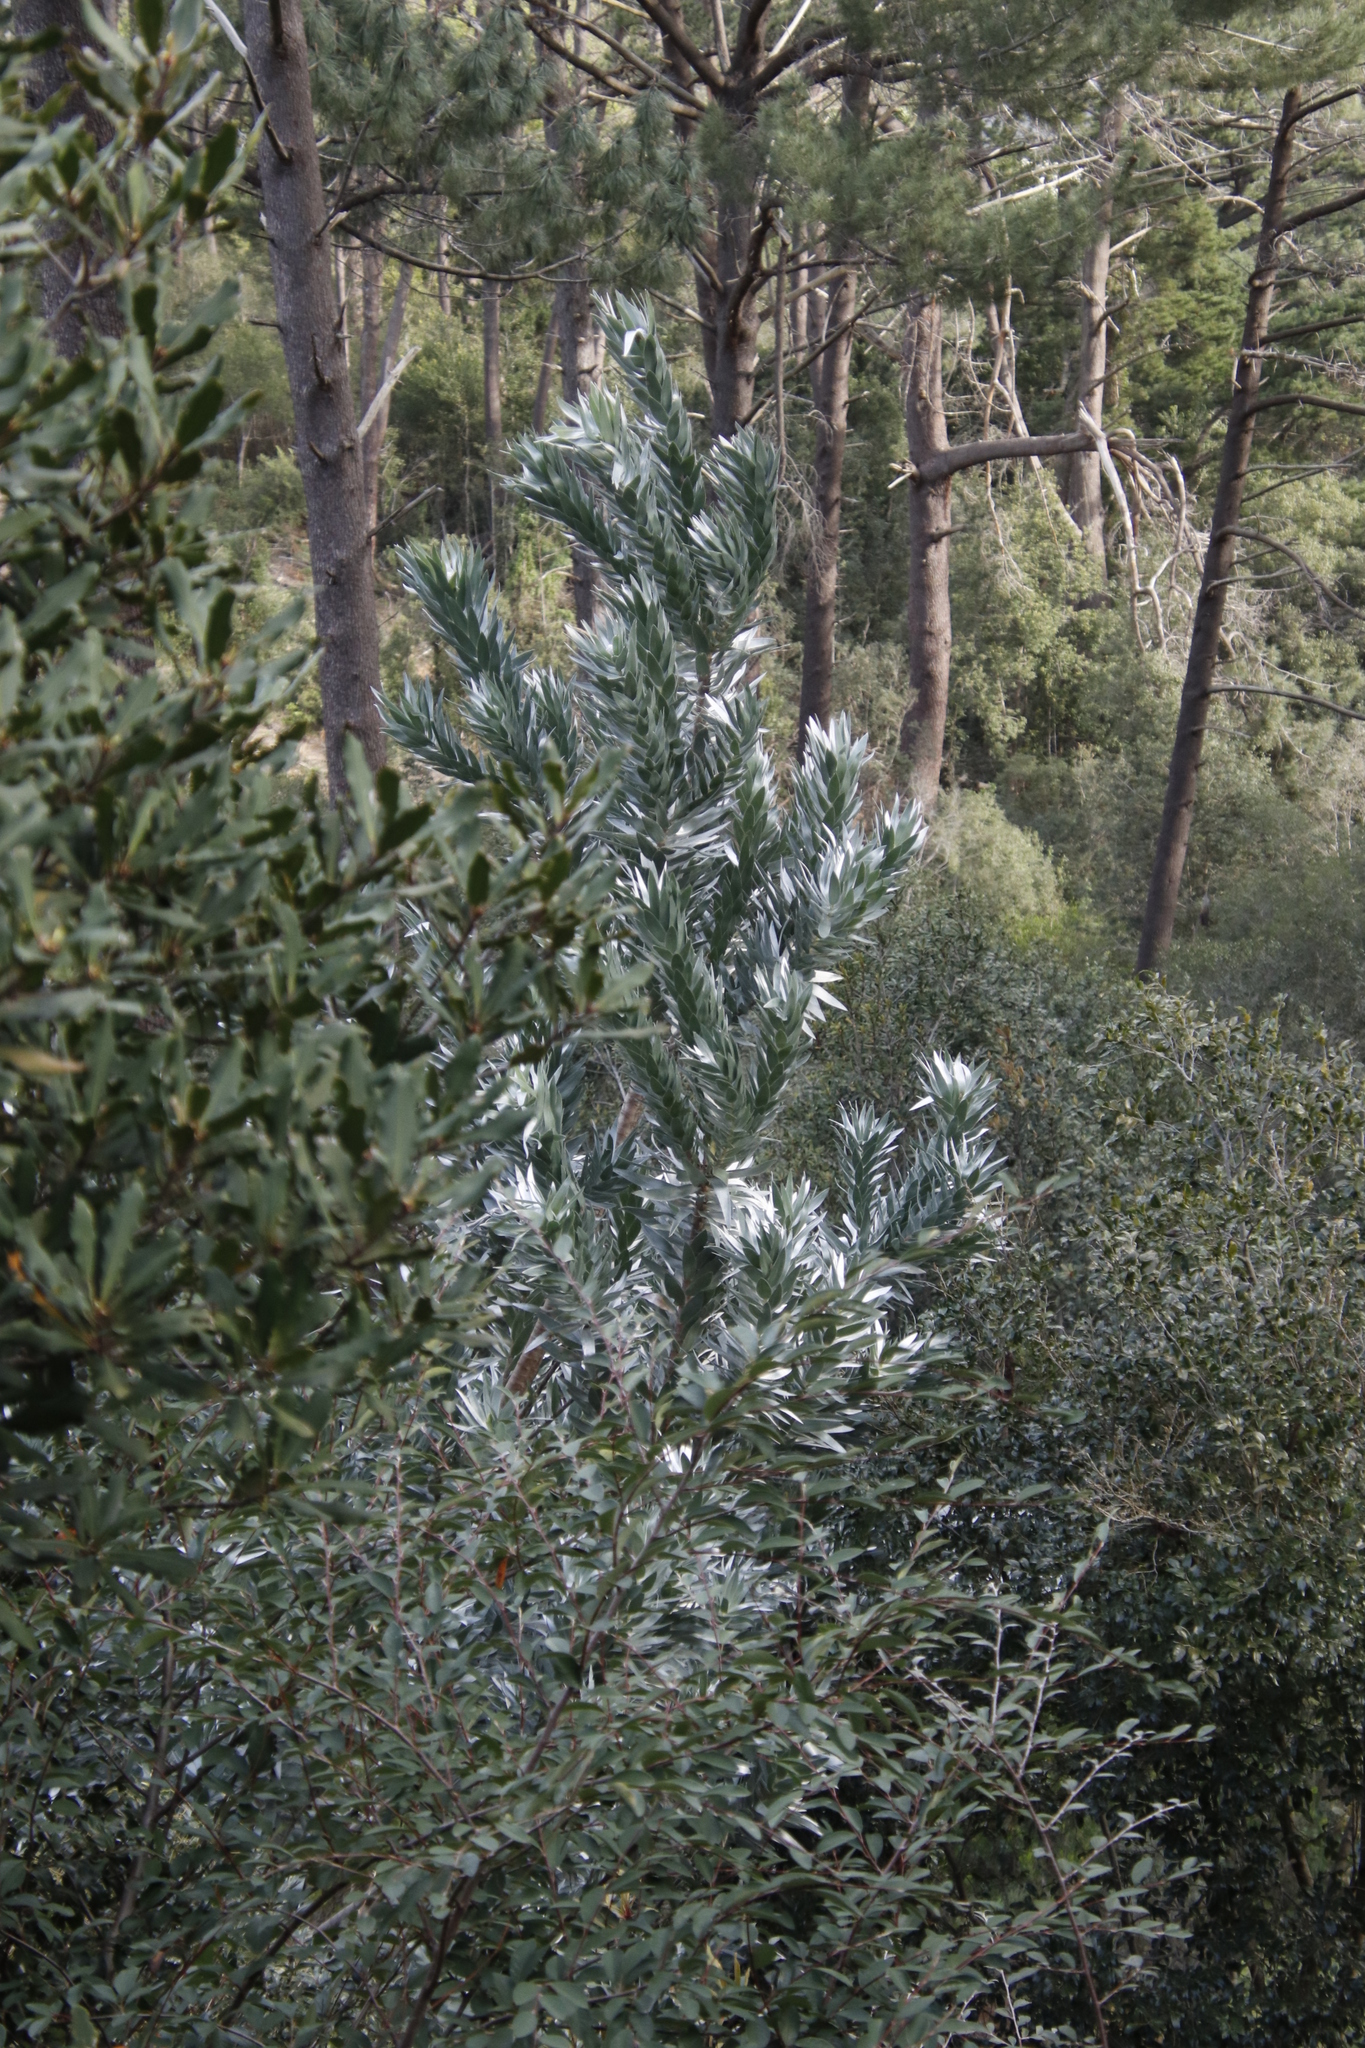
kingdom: Plantae
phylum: Tracheophyta
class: Magnoliopsida
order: Proteales
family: Proteaceae
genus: Leucadendron
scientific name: Leucadendron argenteum
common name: Cape silver tree
